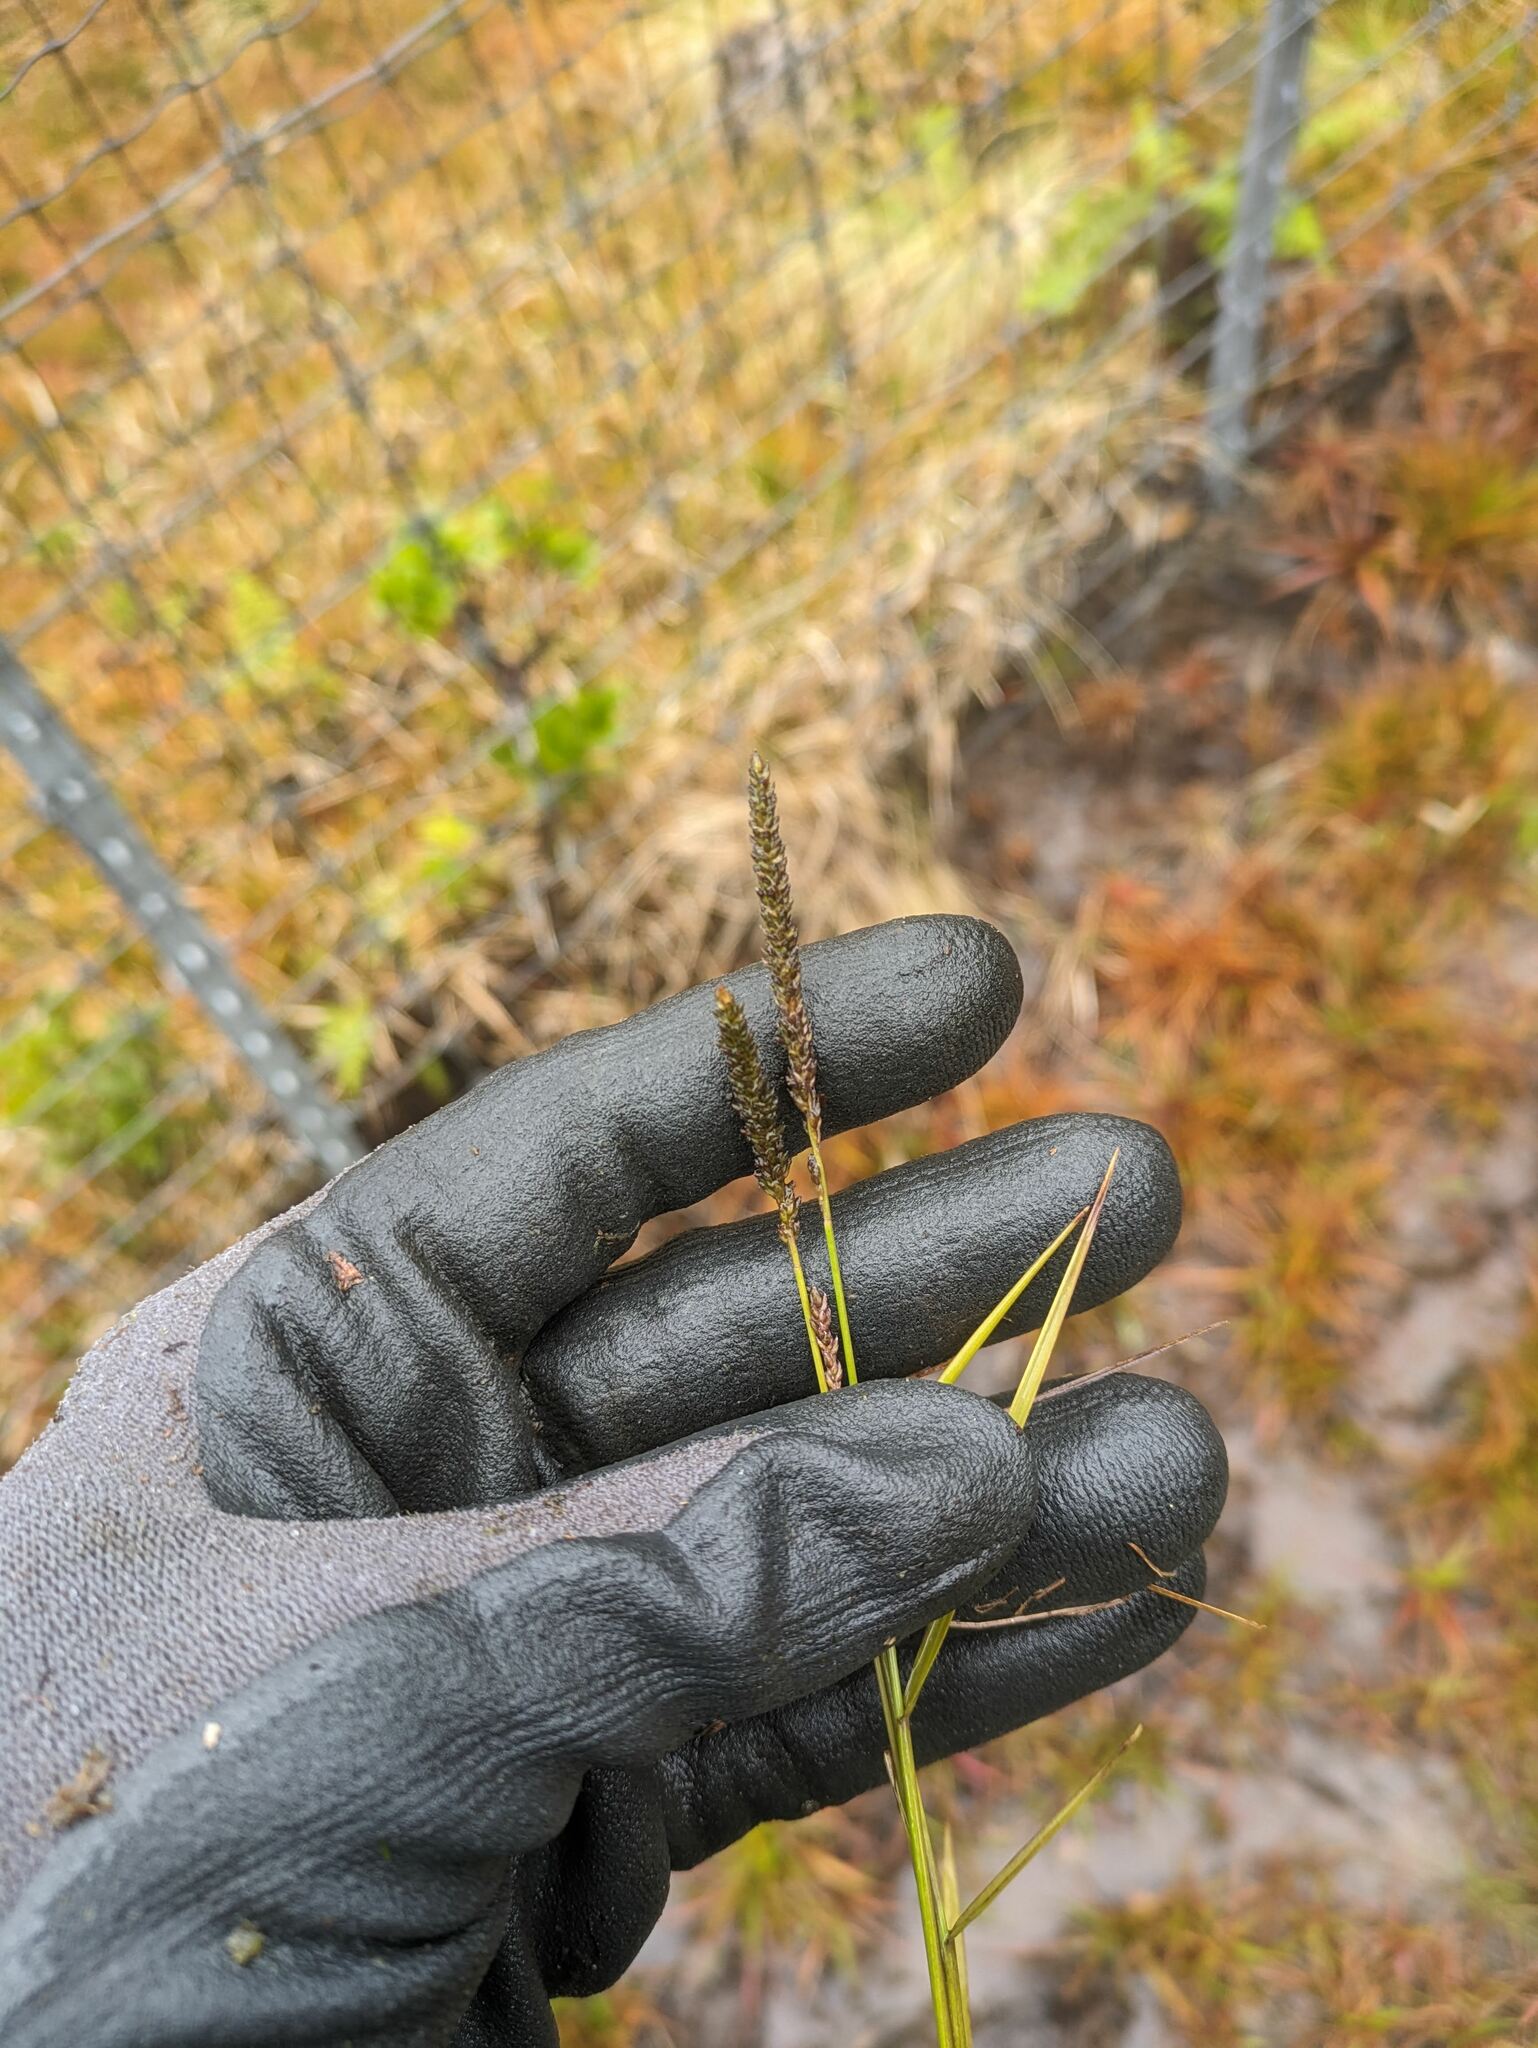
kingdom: Plantae
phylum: Tracheophyta
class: Liliopsida
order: Poales
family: Poaceae
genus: Sacciolepis
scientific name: Sacciolepis indica
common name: Glenwoodgrass
